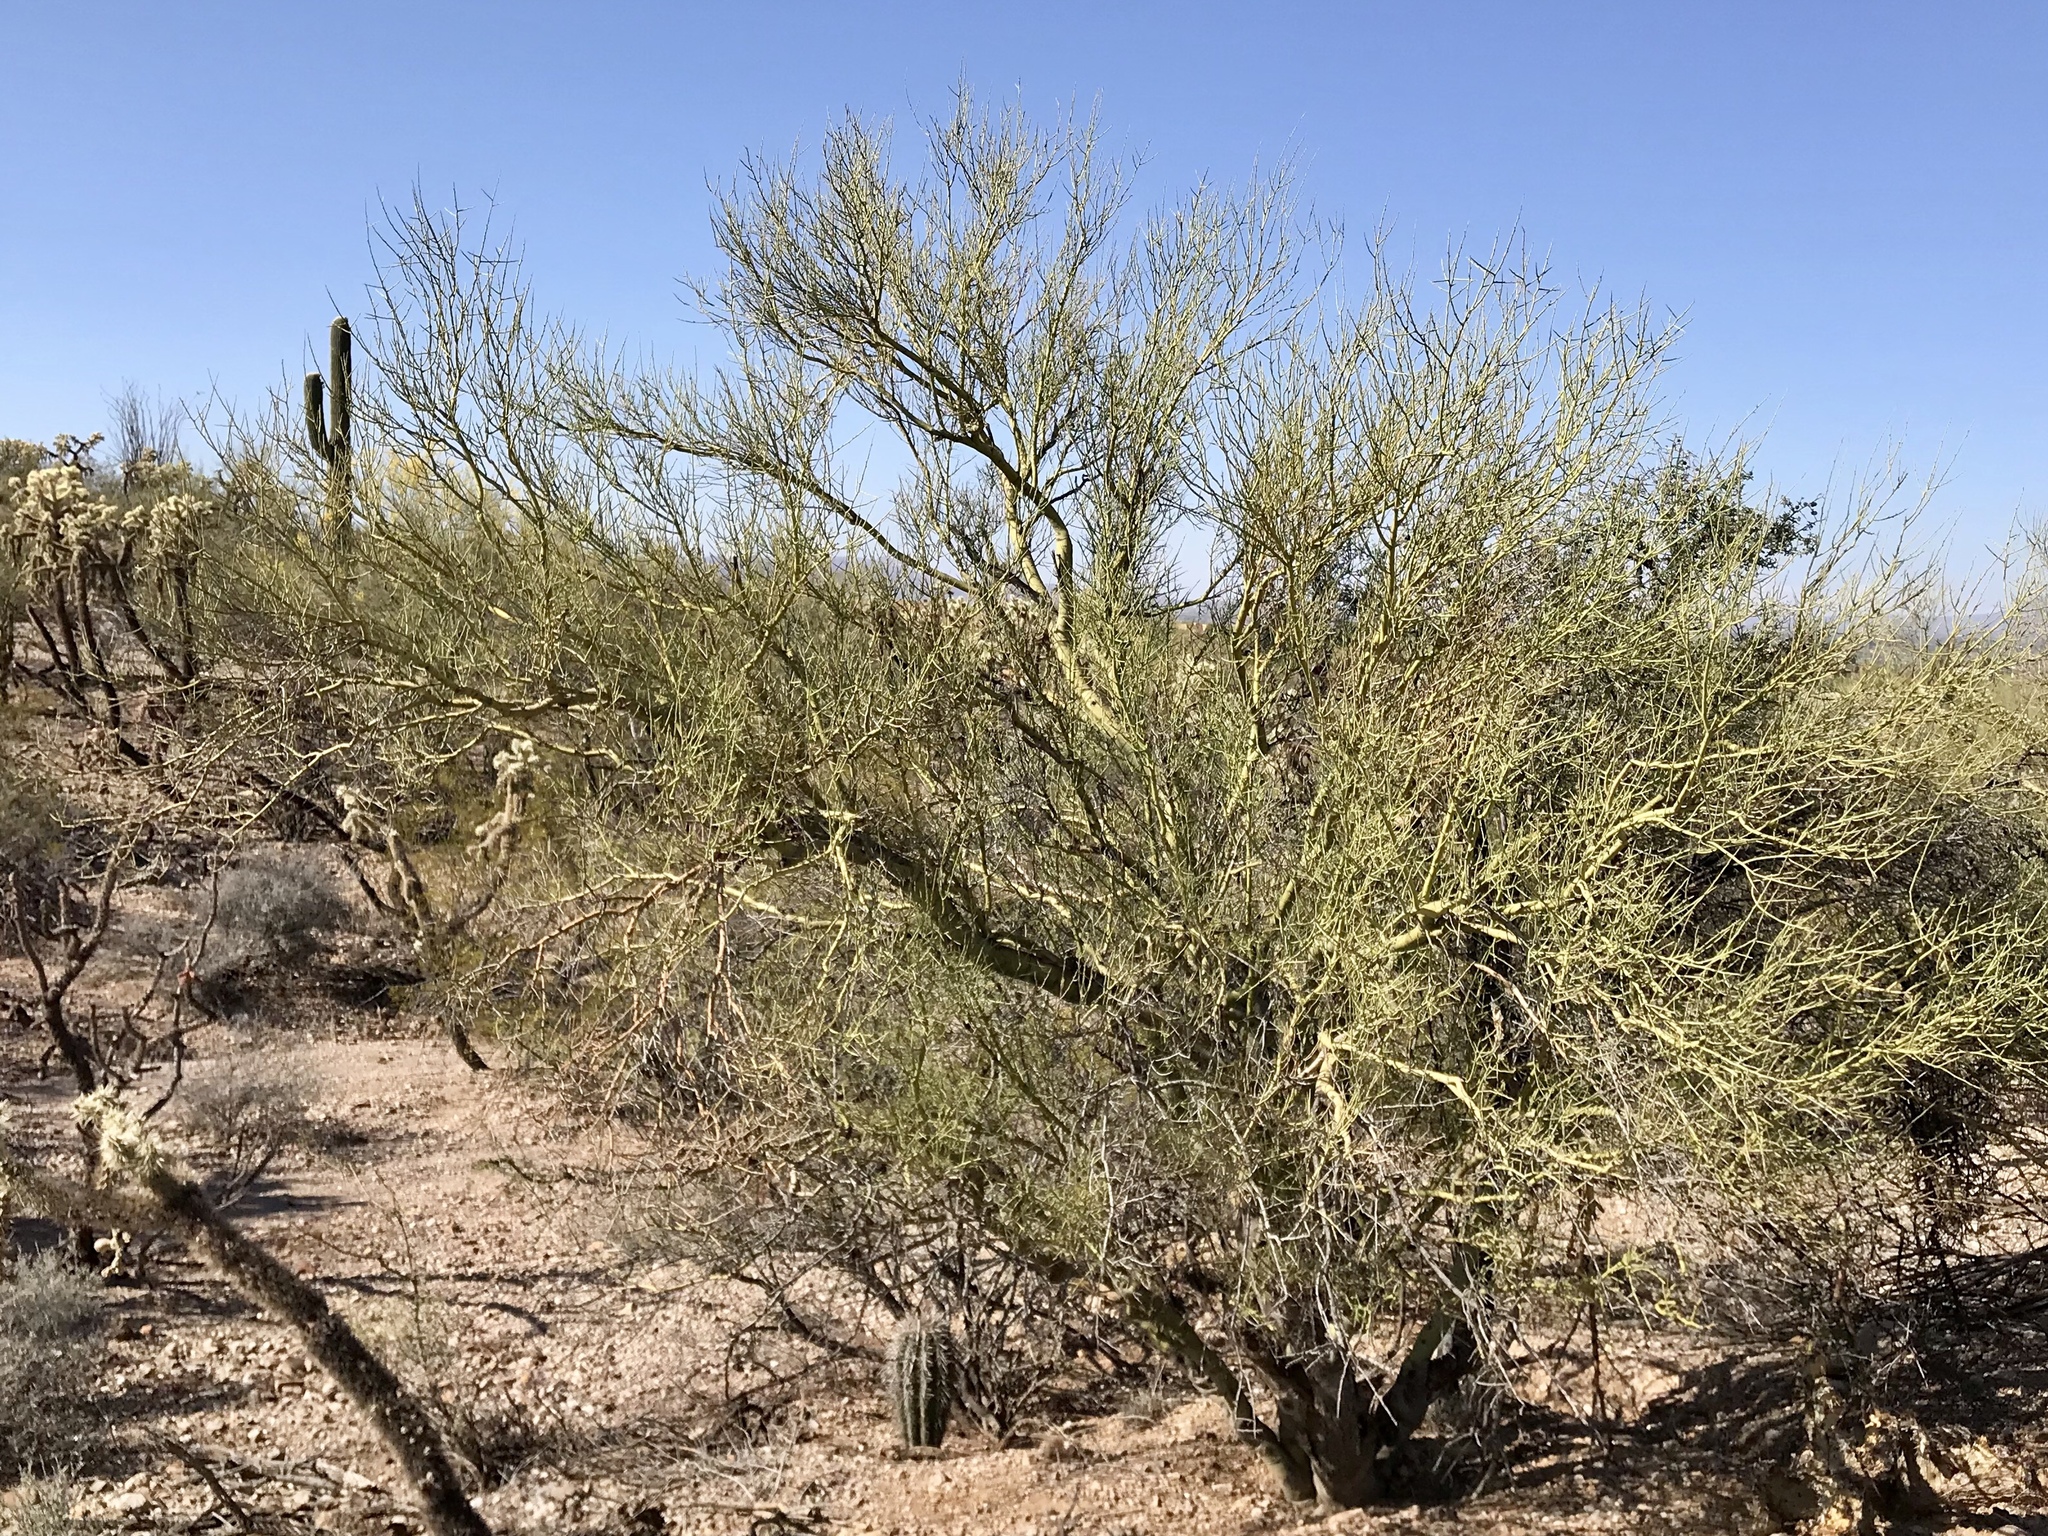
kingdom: Plantae
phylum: Tracheophyta
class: Magnoliopsida
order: Fabales
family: Fabaceae
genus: Parkinsonia
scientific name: Parkinsonia microphylla
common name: Yellow paloverde
